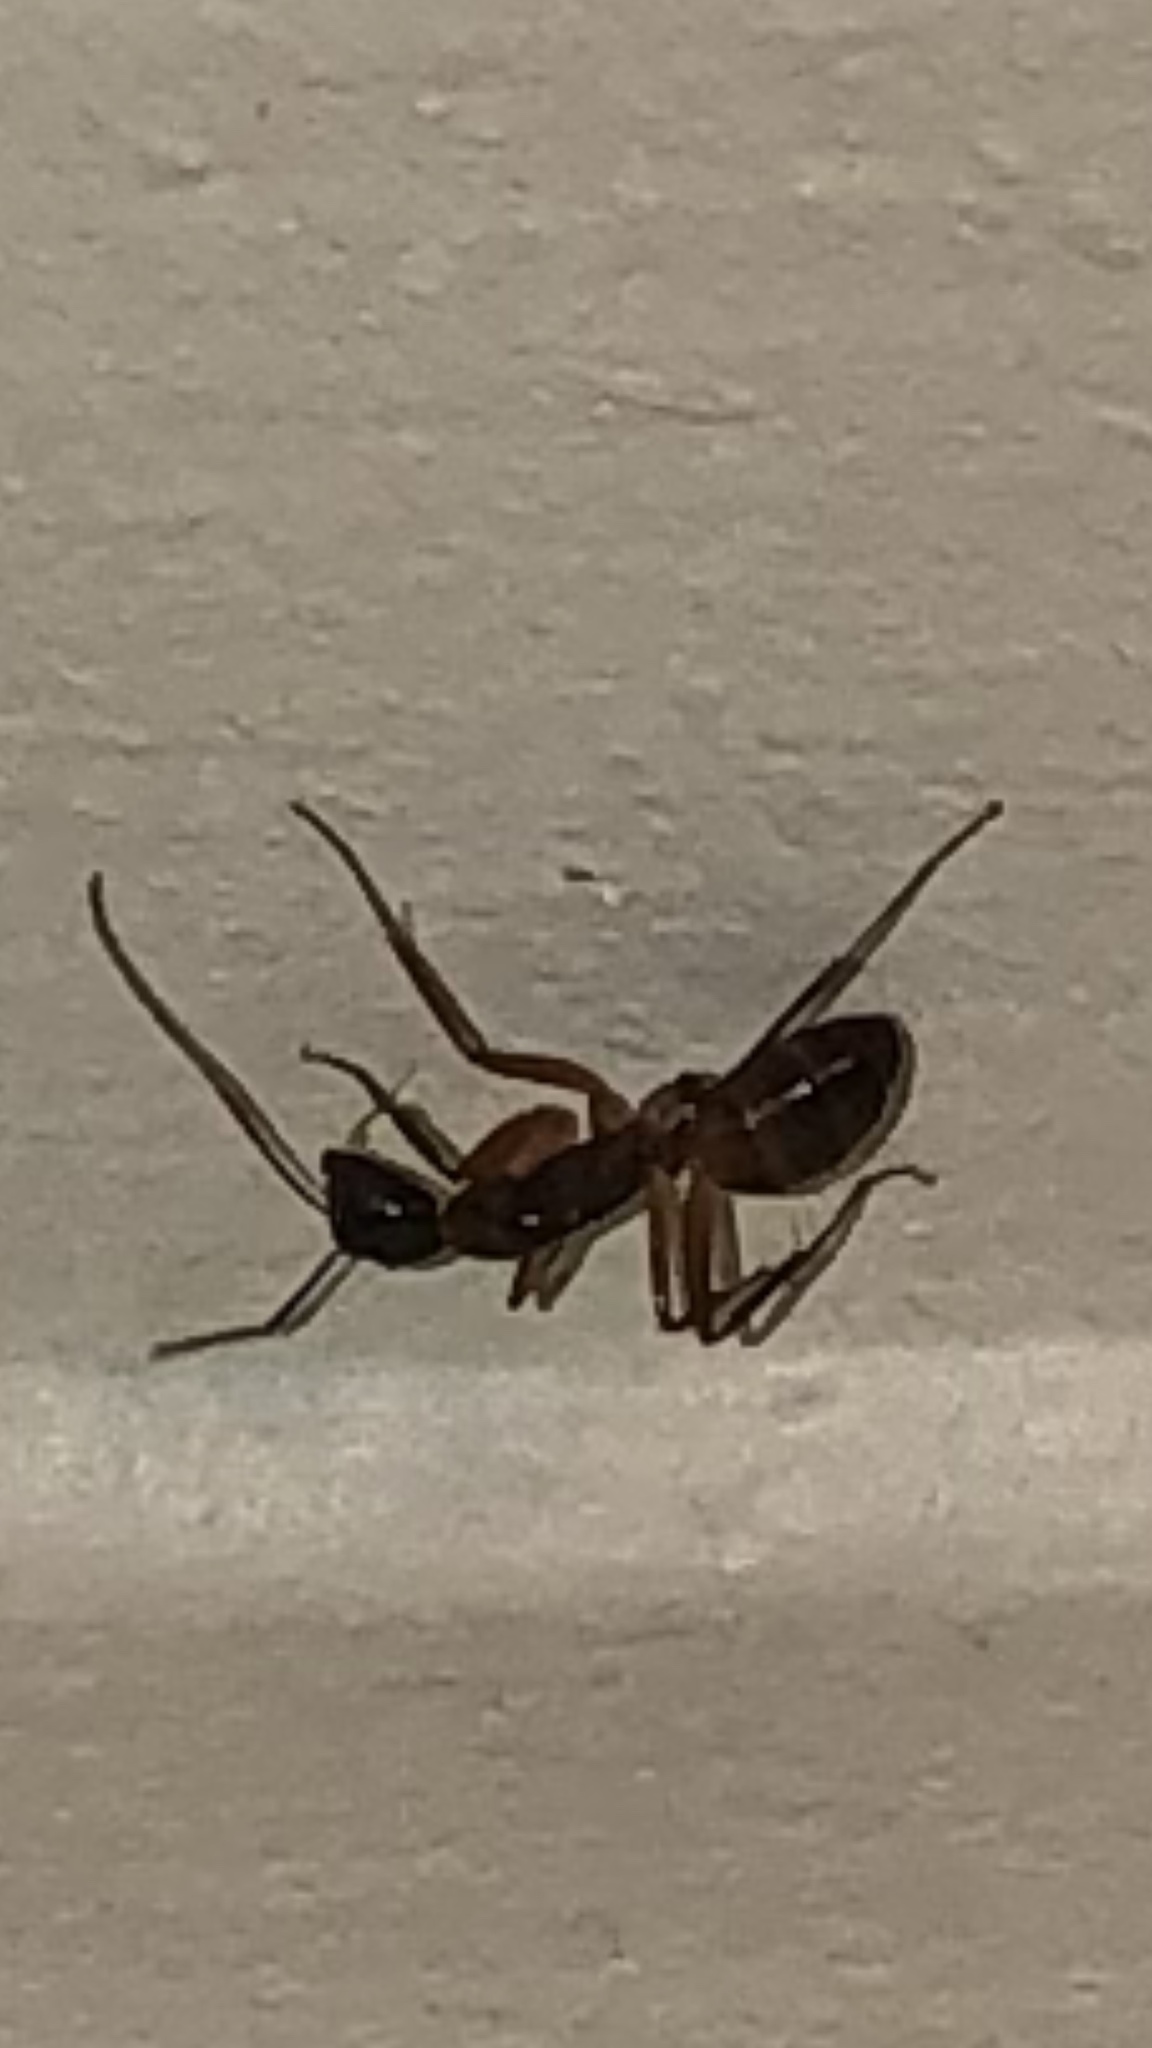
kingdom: Animalia
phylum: Arthropoda
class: Insecta
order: Hymenoptera
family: Formicidae
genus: Camponotus
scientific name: Camponotus americanus
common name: American carpenter ant
